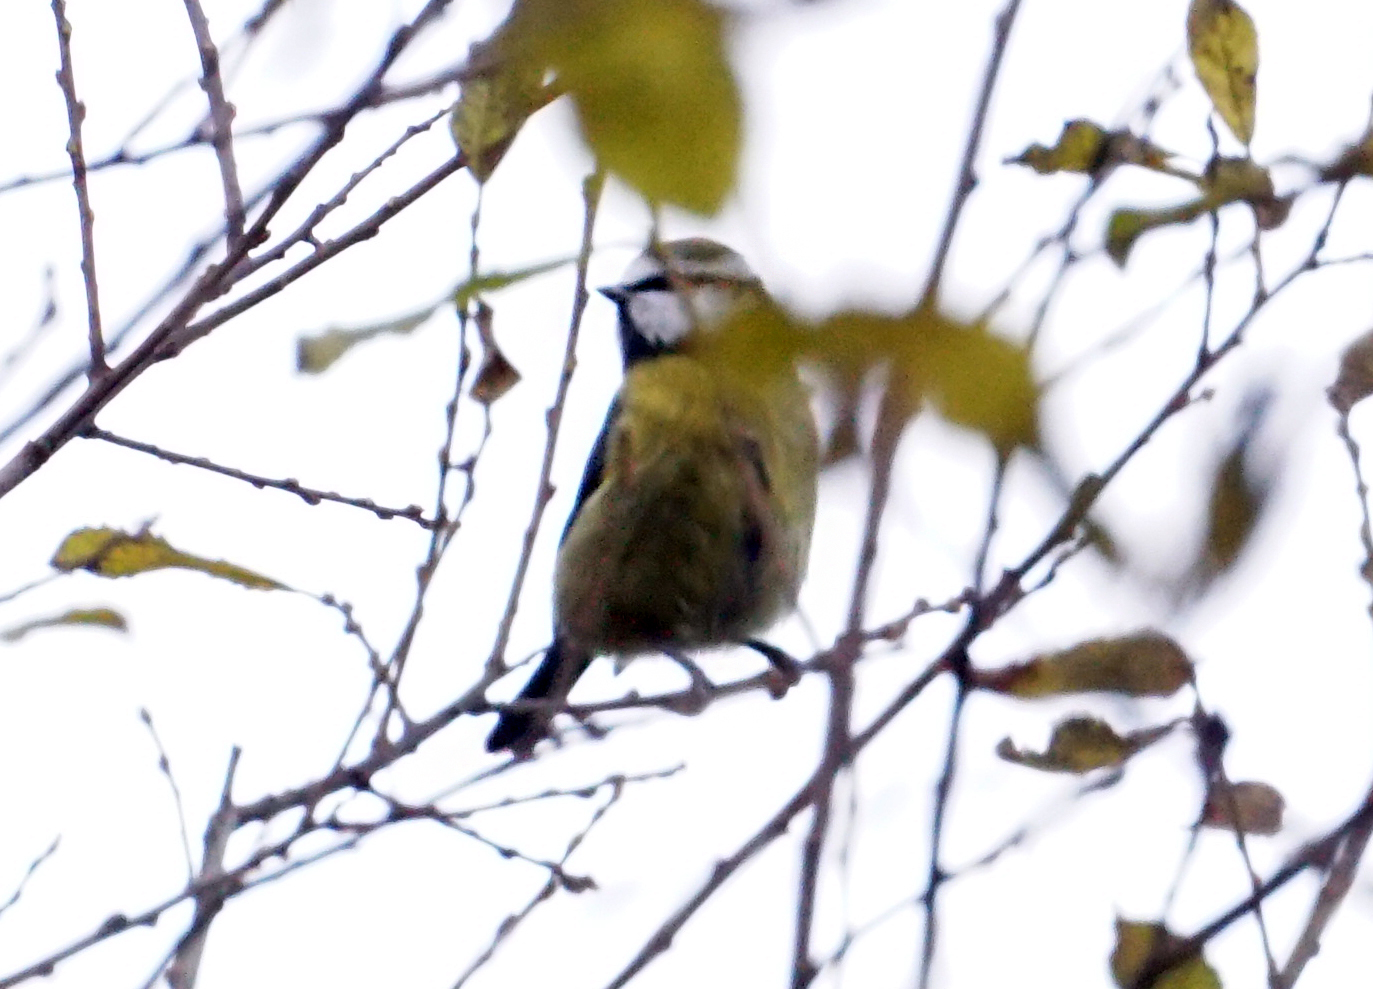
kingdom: Animalia
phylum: Chordata
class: Aves
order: Passeriformes
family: Paridae
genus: Cyanistes
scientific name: Cyanistes caeruleus
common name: Eurasian blue tit
